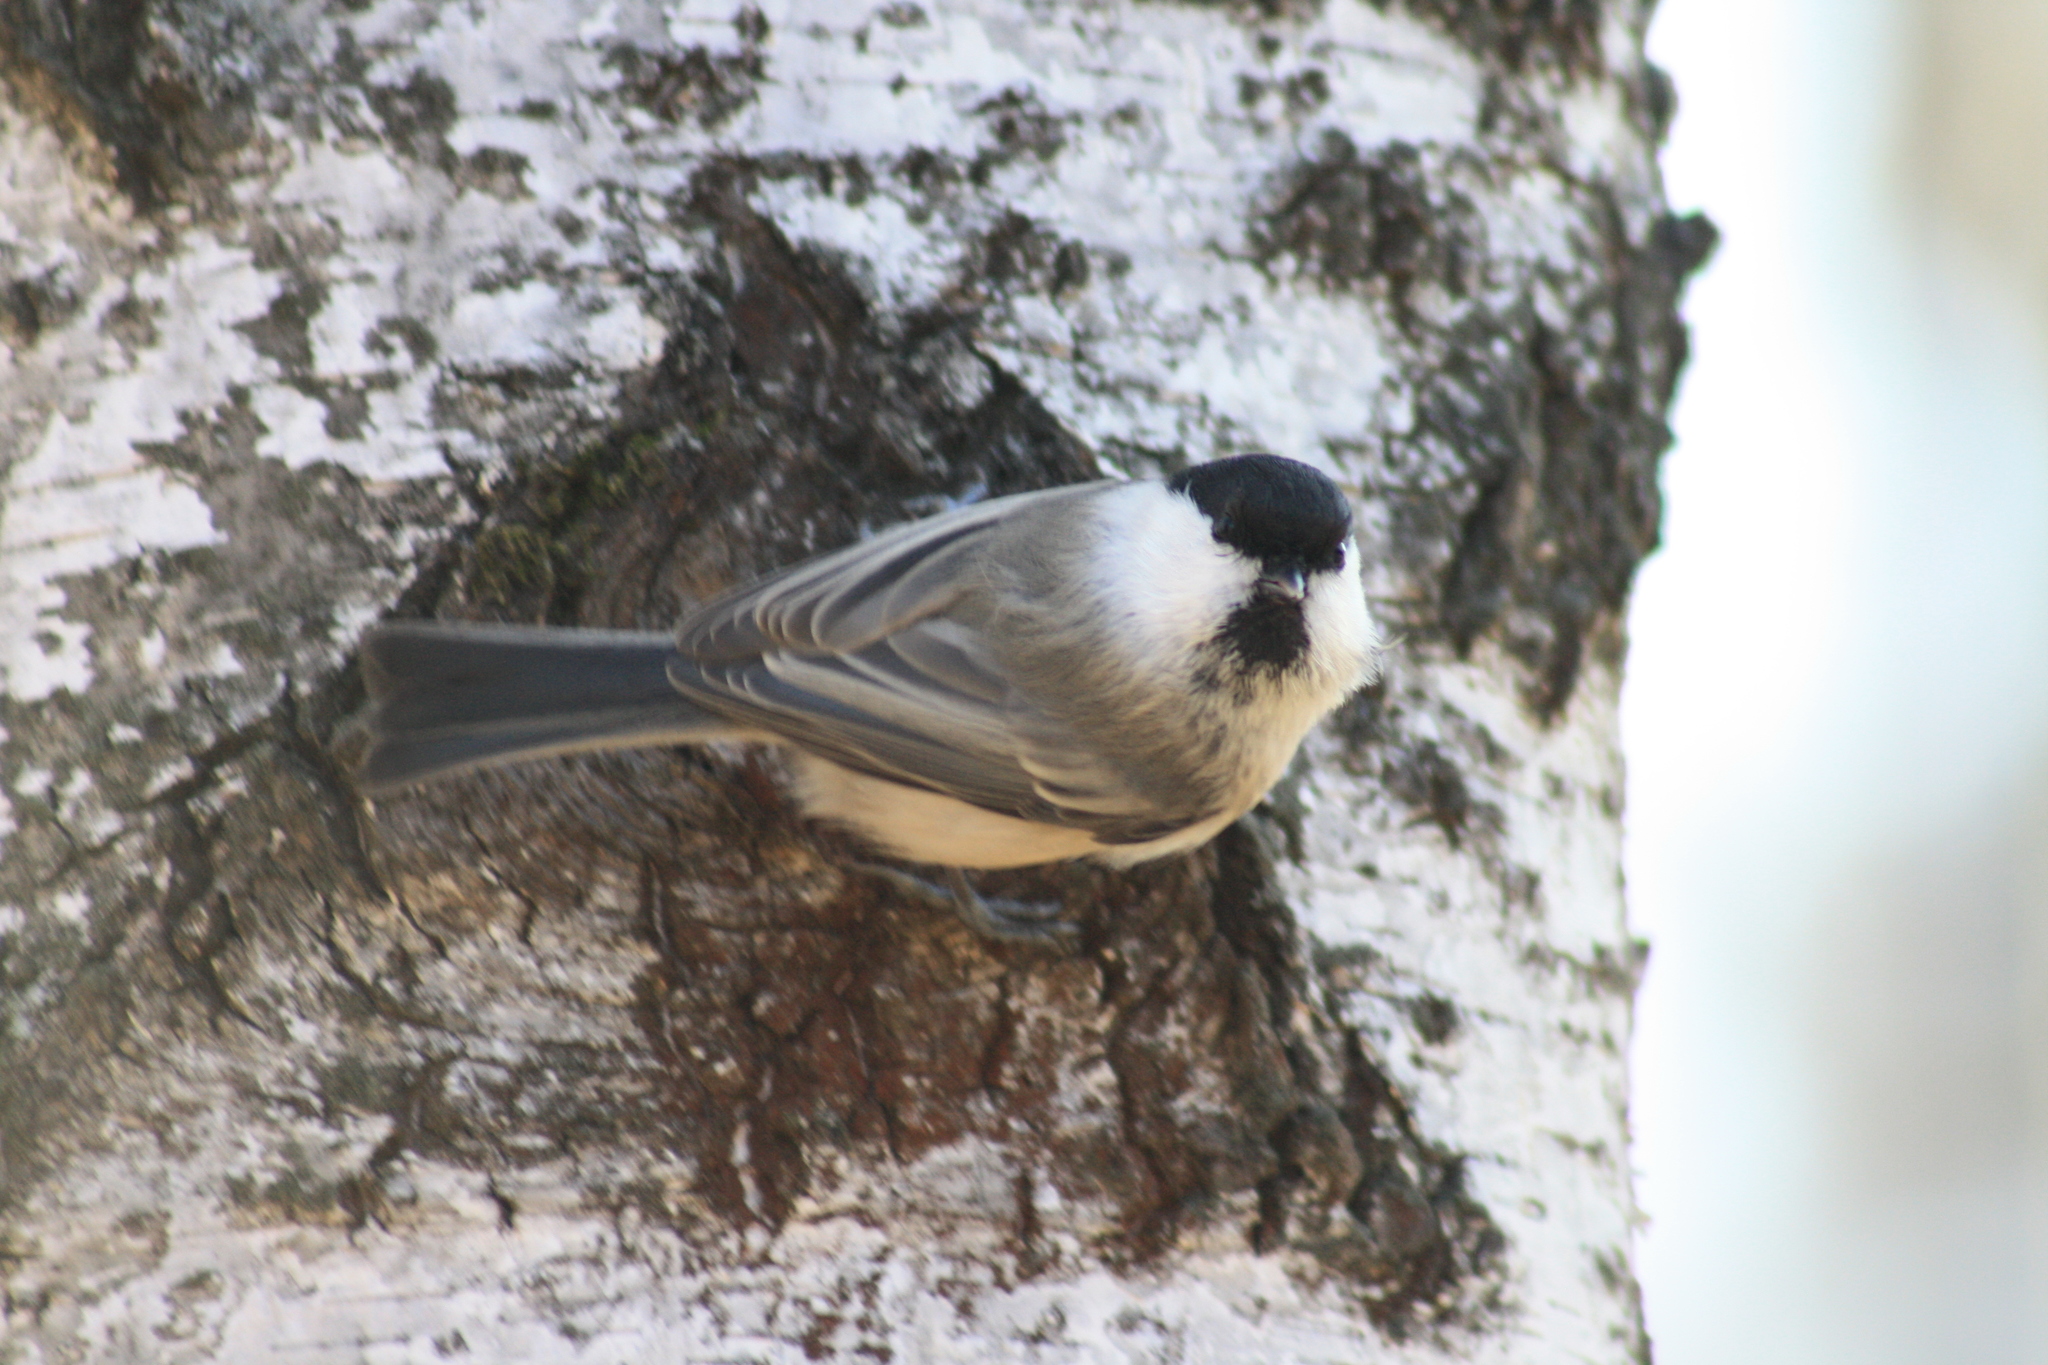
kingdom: Animalia
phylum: Chordata
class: Aves
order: Passeriformes
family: Paridae
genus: Poecile
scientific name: Poecile montanus
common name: Willow tit
